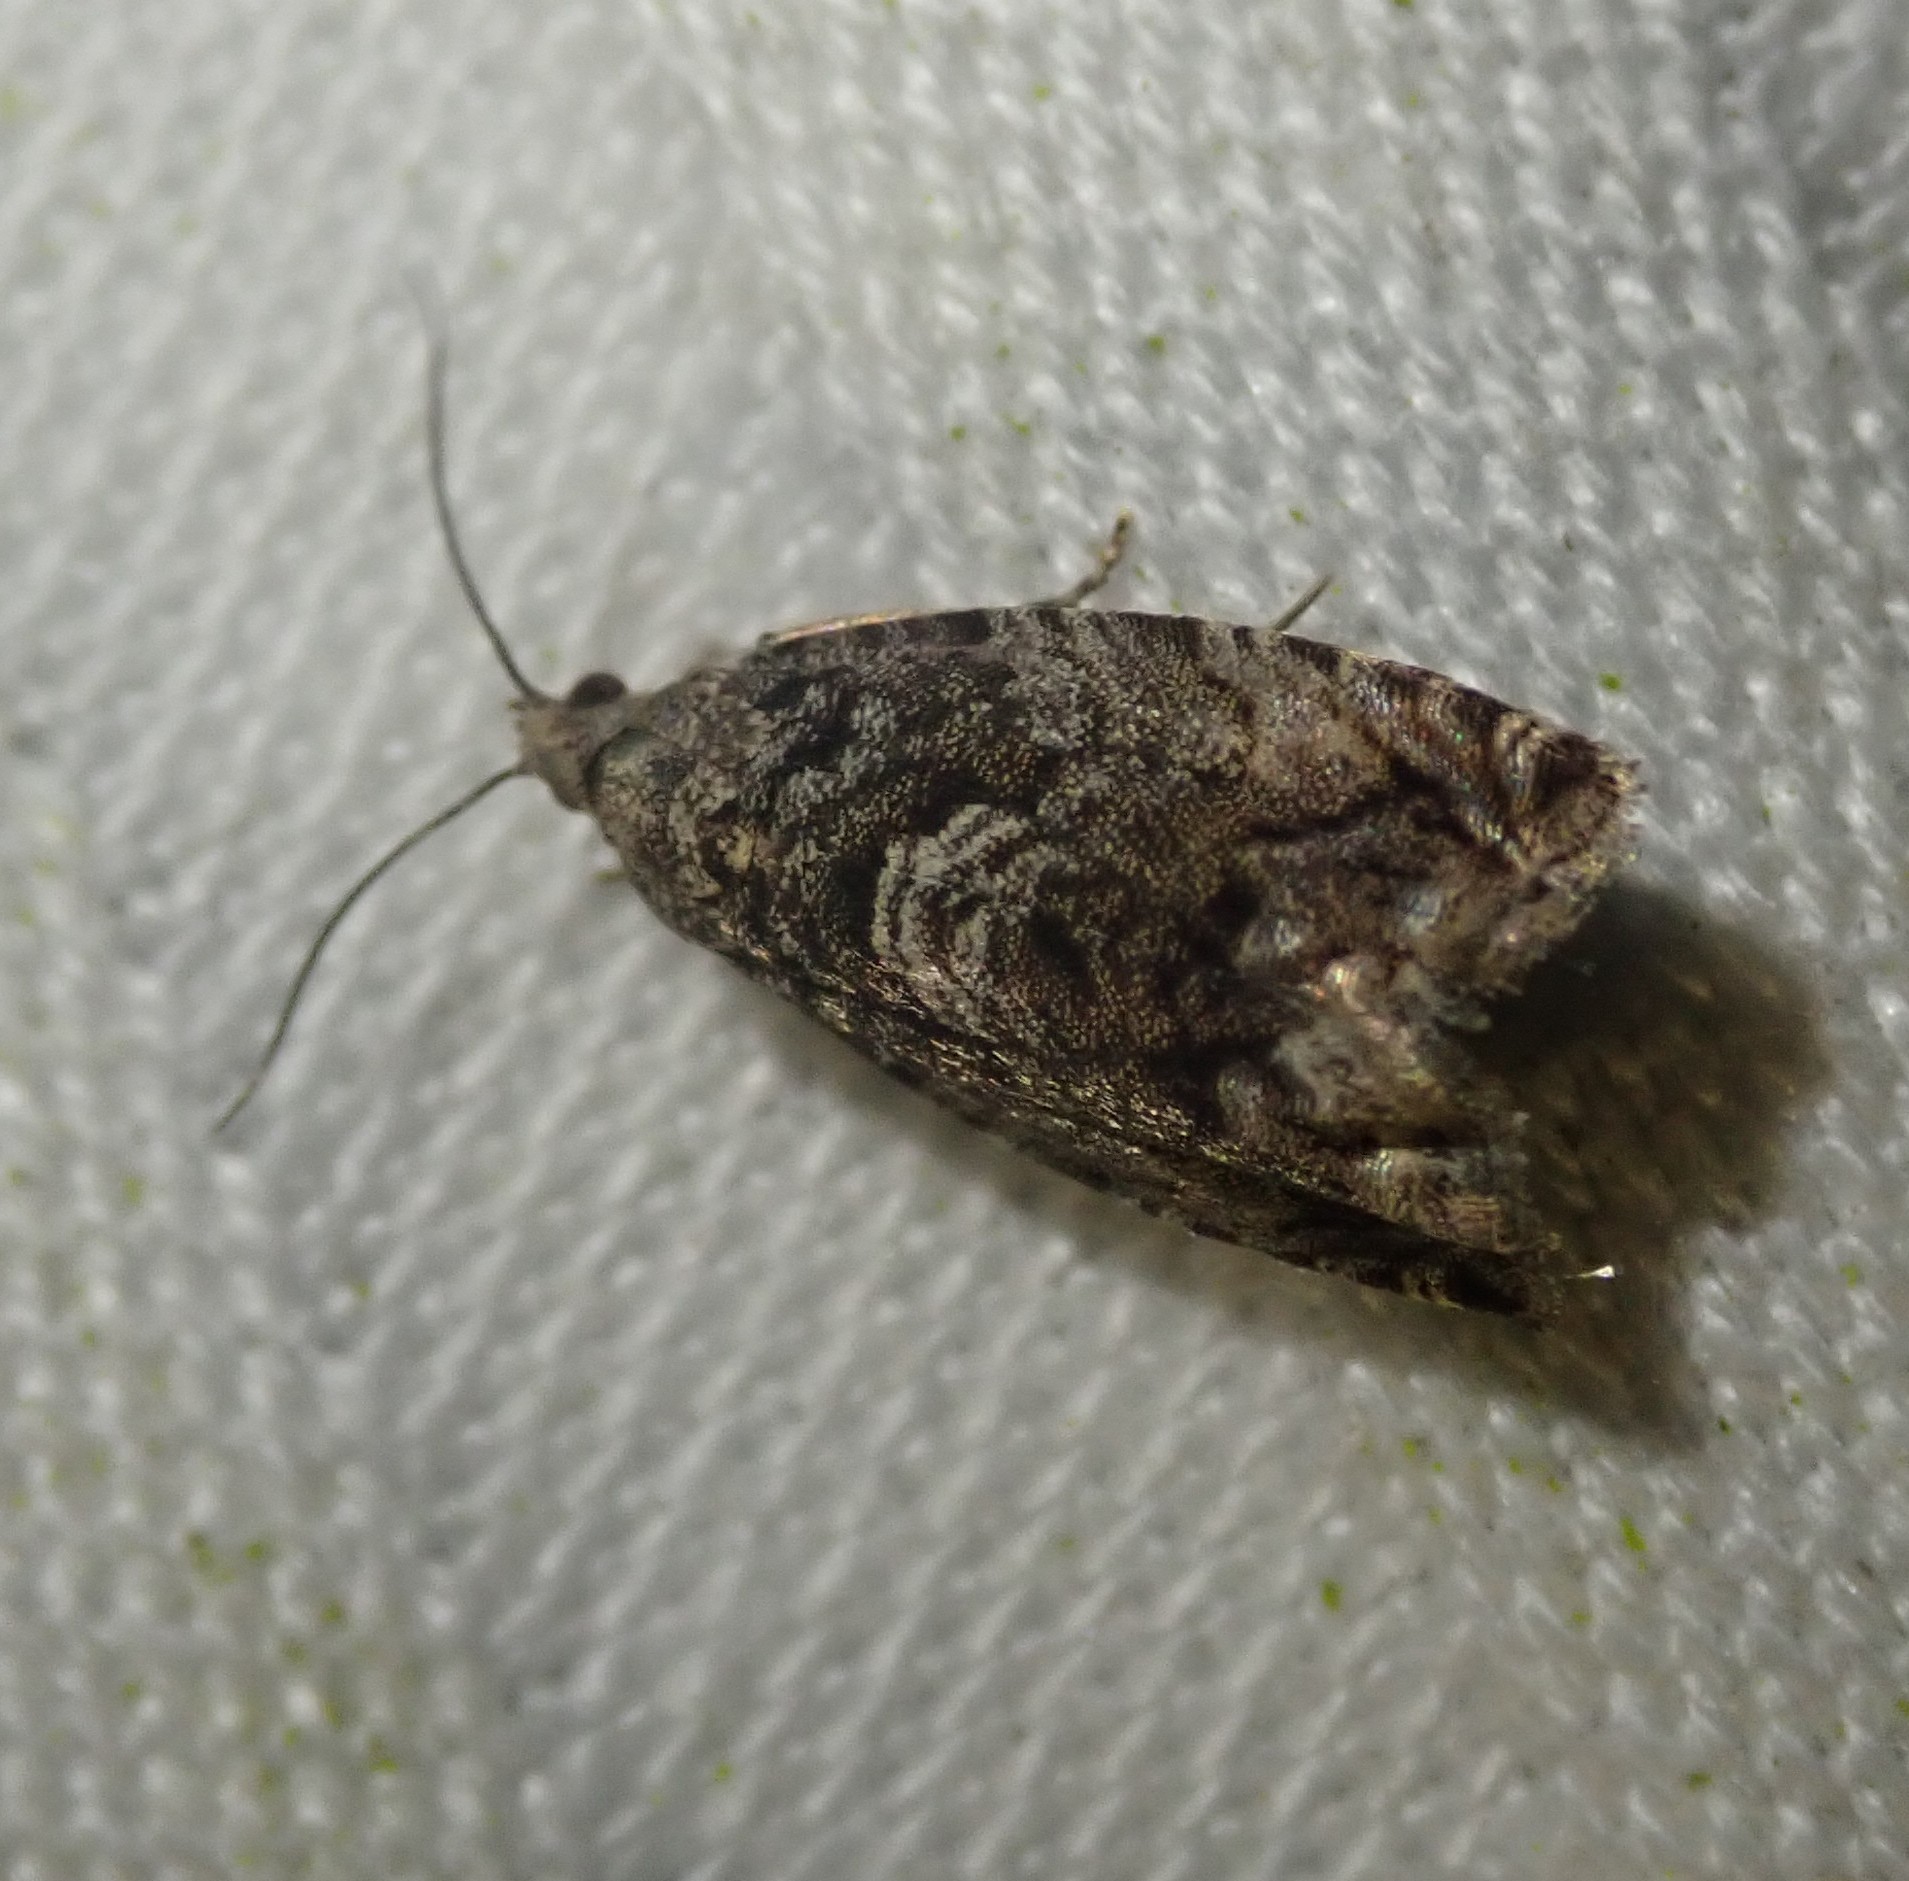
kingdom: Animalia
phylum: Arthropoda
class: Insecta
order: Lepidoptera
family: Tortricidae
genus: Cydia
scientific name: Cydia fagiglandana
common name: Large beech piercer
